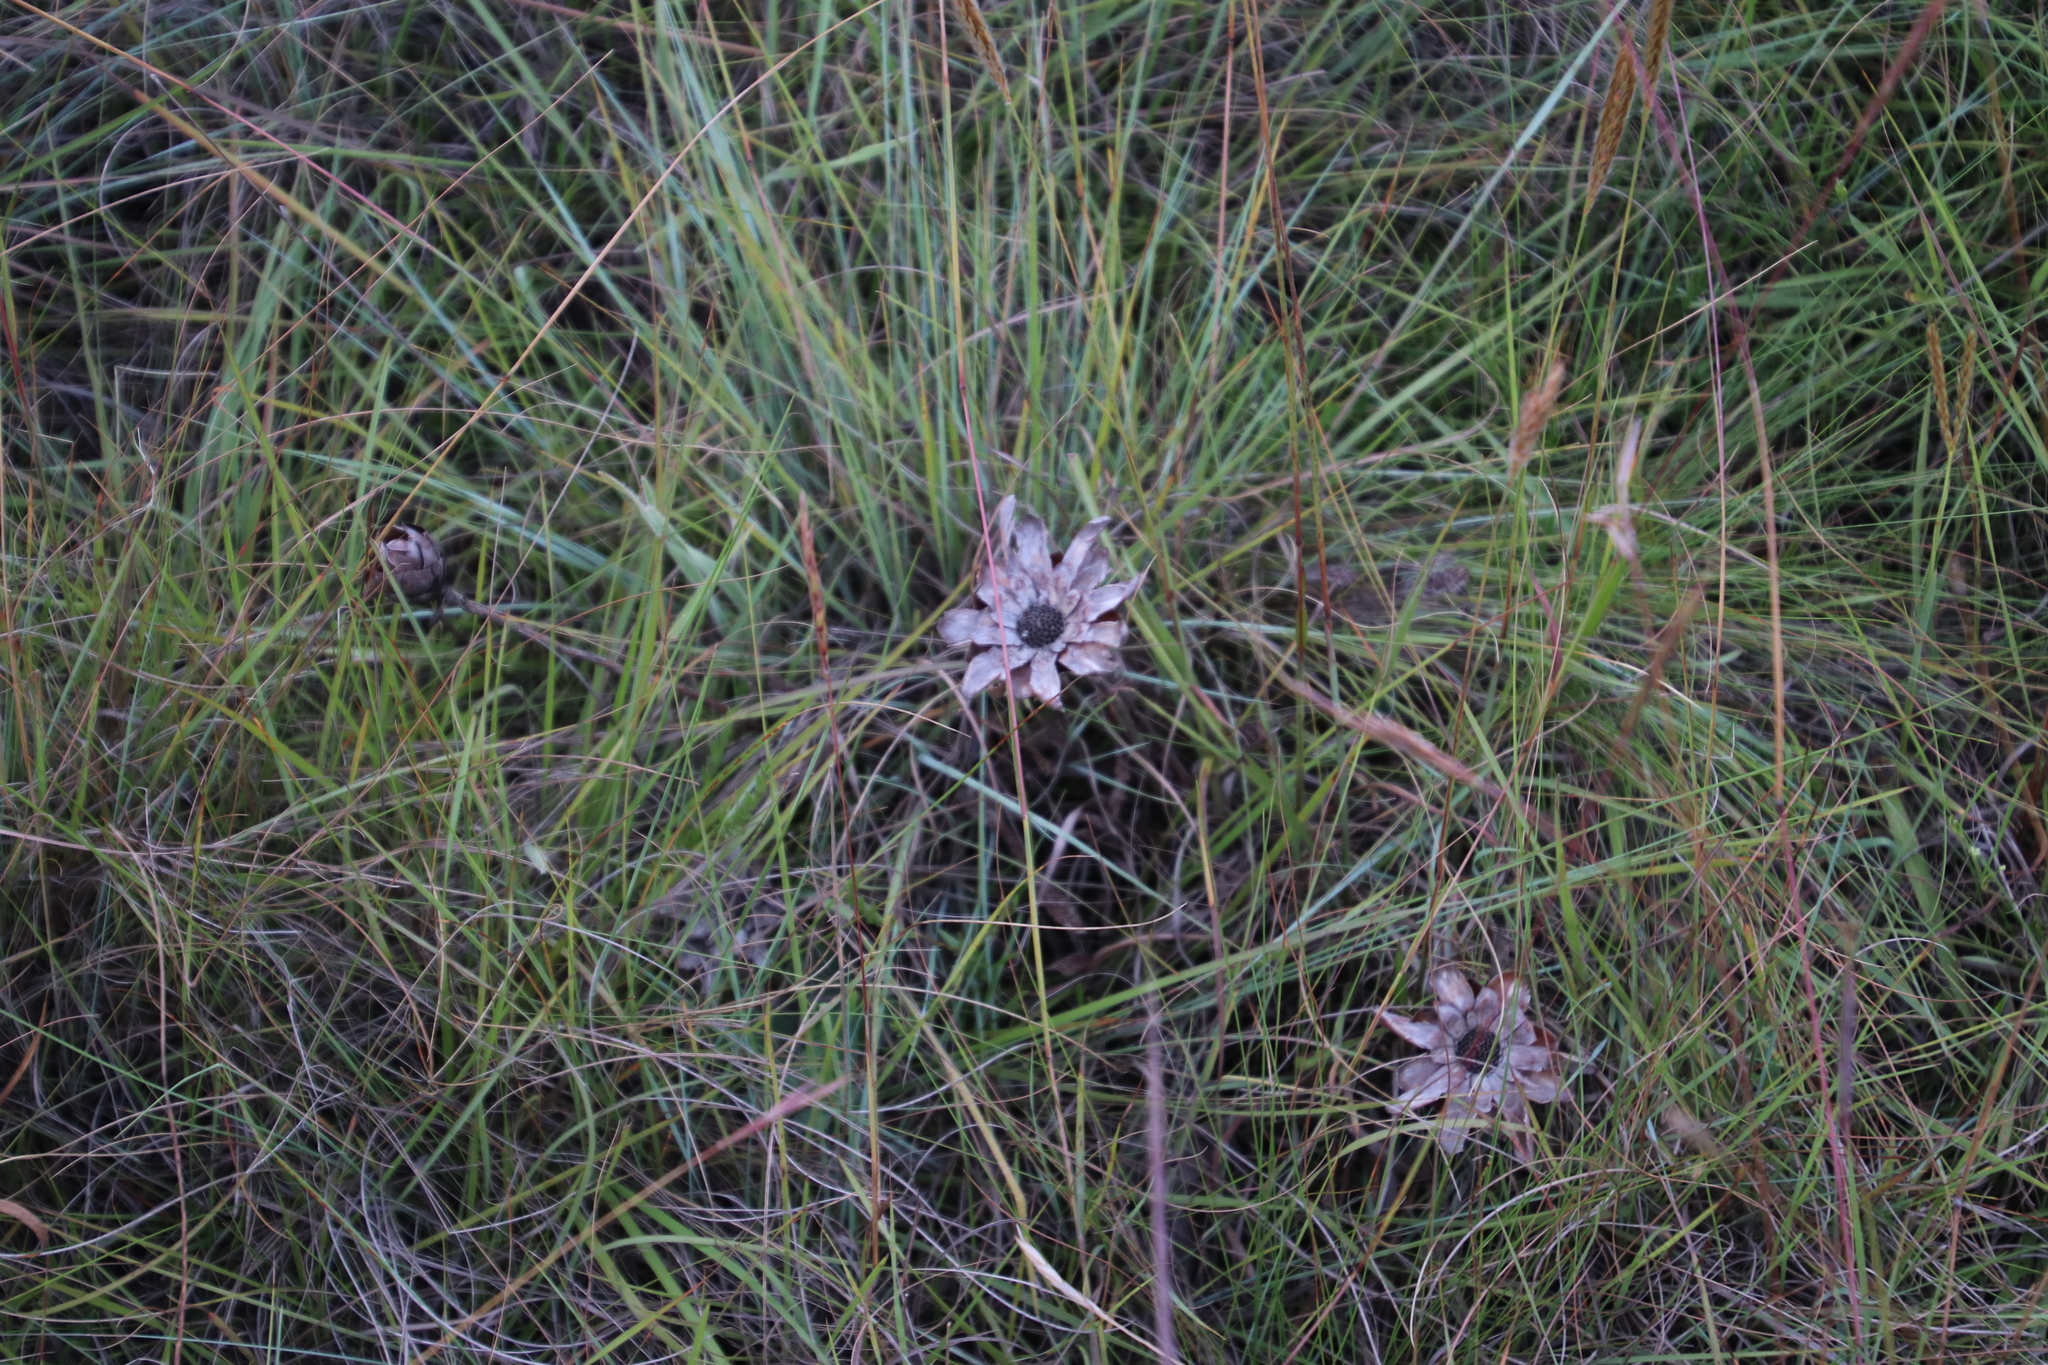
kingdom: Plantae
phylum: Tracheophyta
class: Magnoliopsida
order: Proteales
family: Proteaceae
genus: Protea
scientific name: Protea simplex
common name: Dwarf grassveld sugarbush
